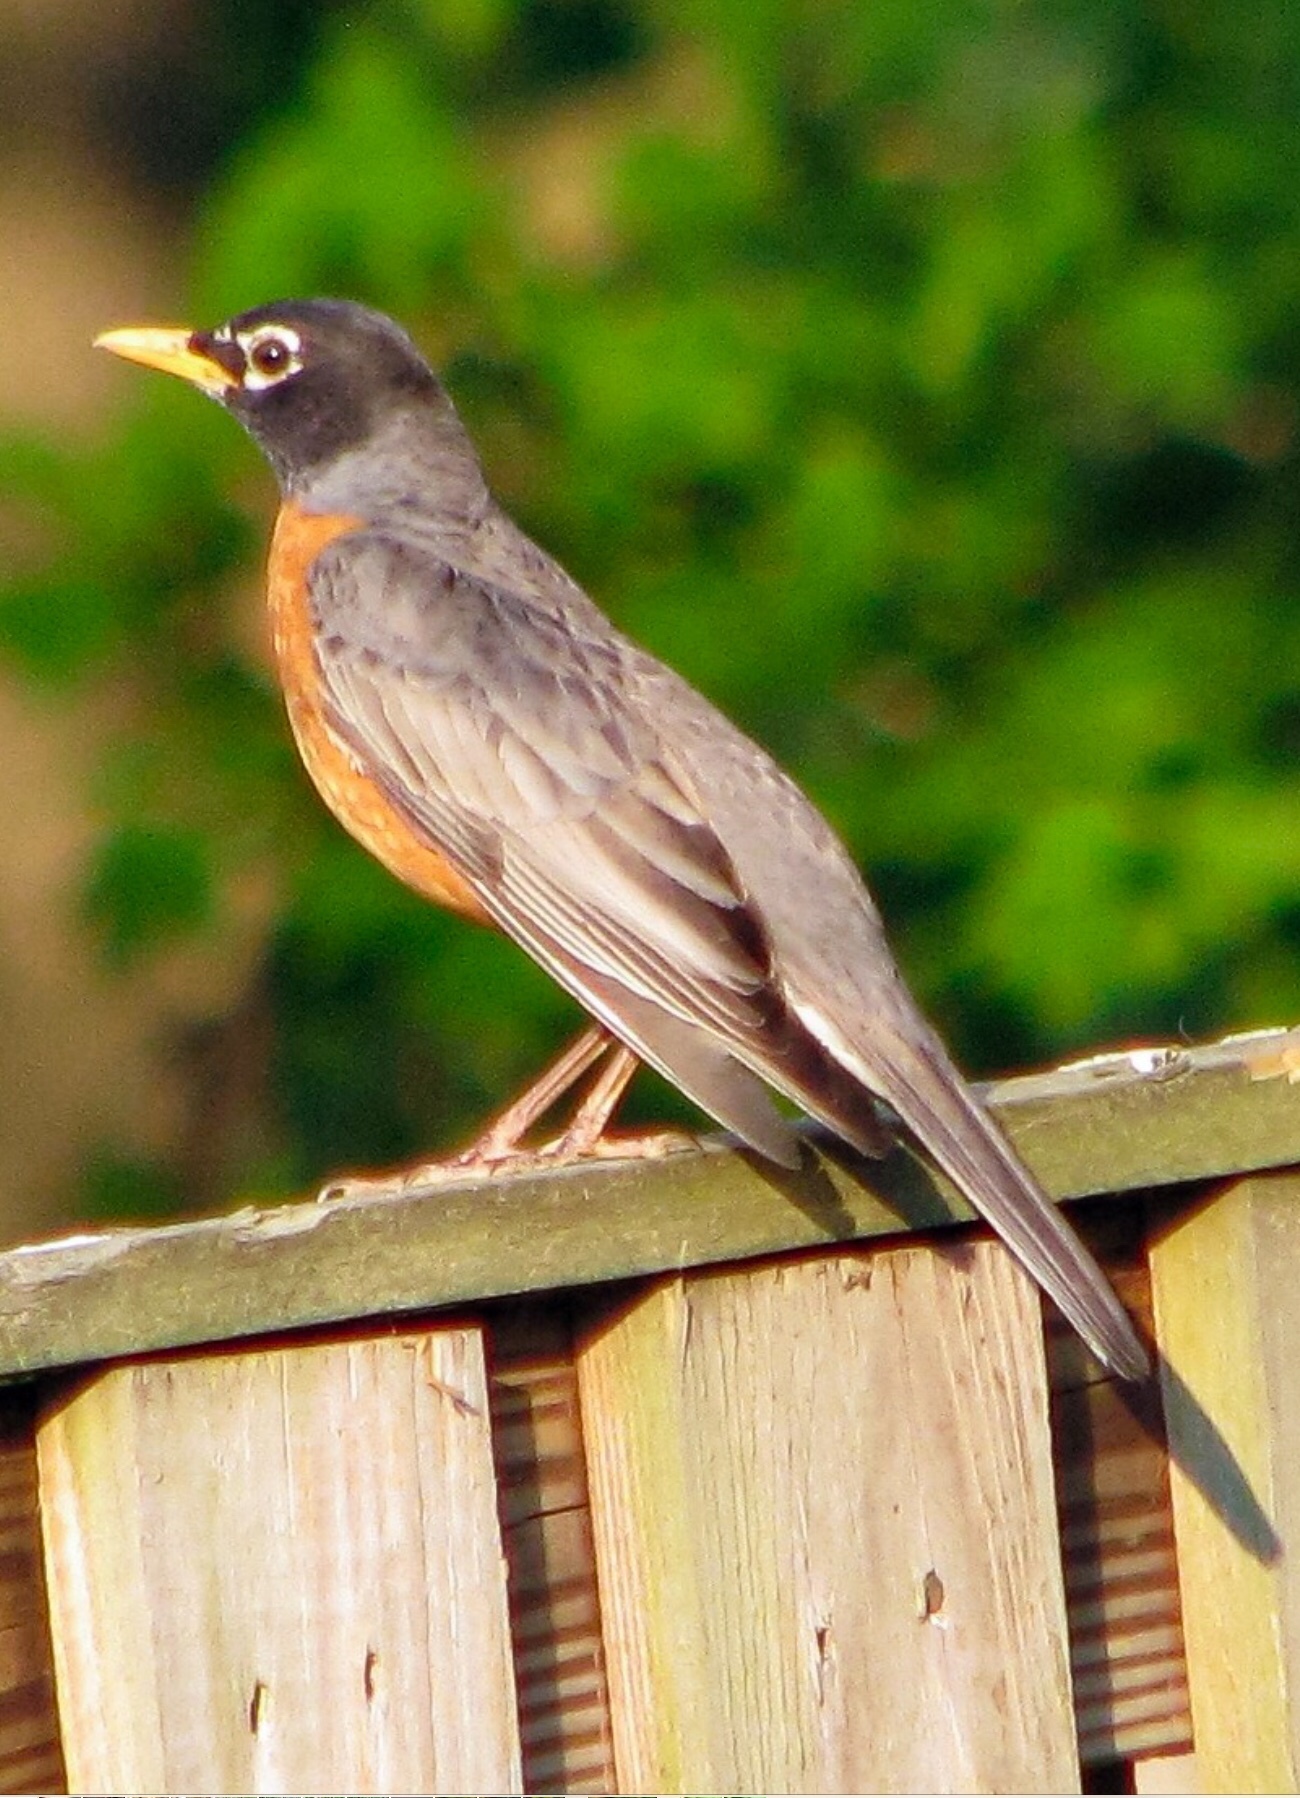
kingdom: Animalia
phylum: Chordata
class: Aves
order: Passeriformes
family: Turdidae
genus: Turdus
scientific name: Turdus migratorius
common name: American robin
